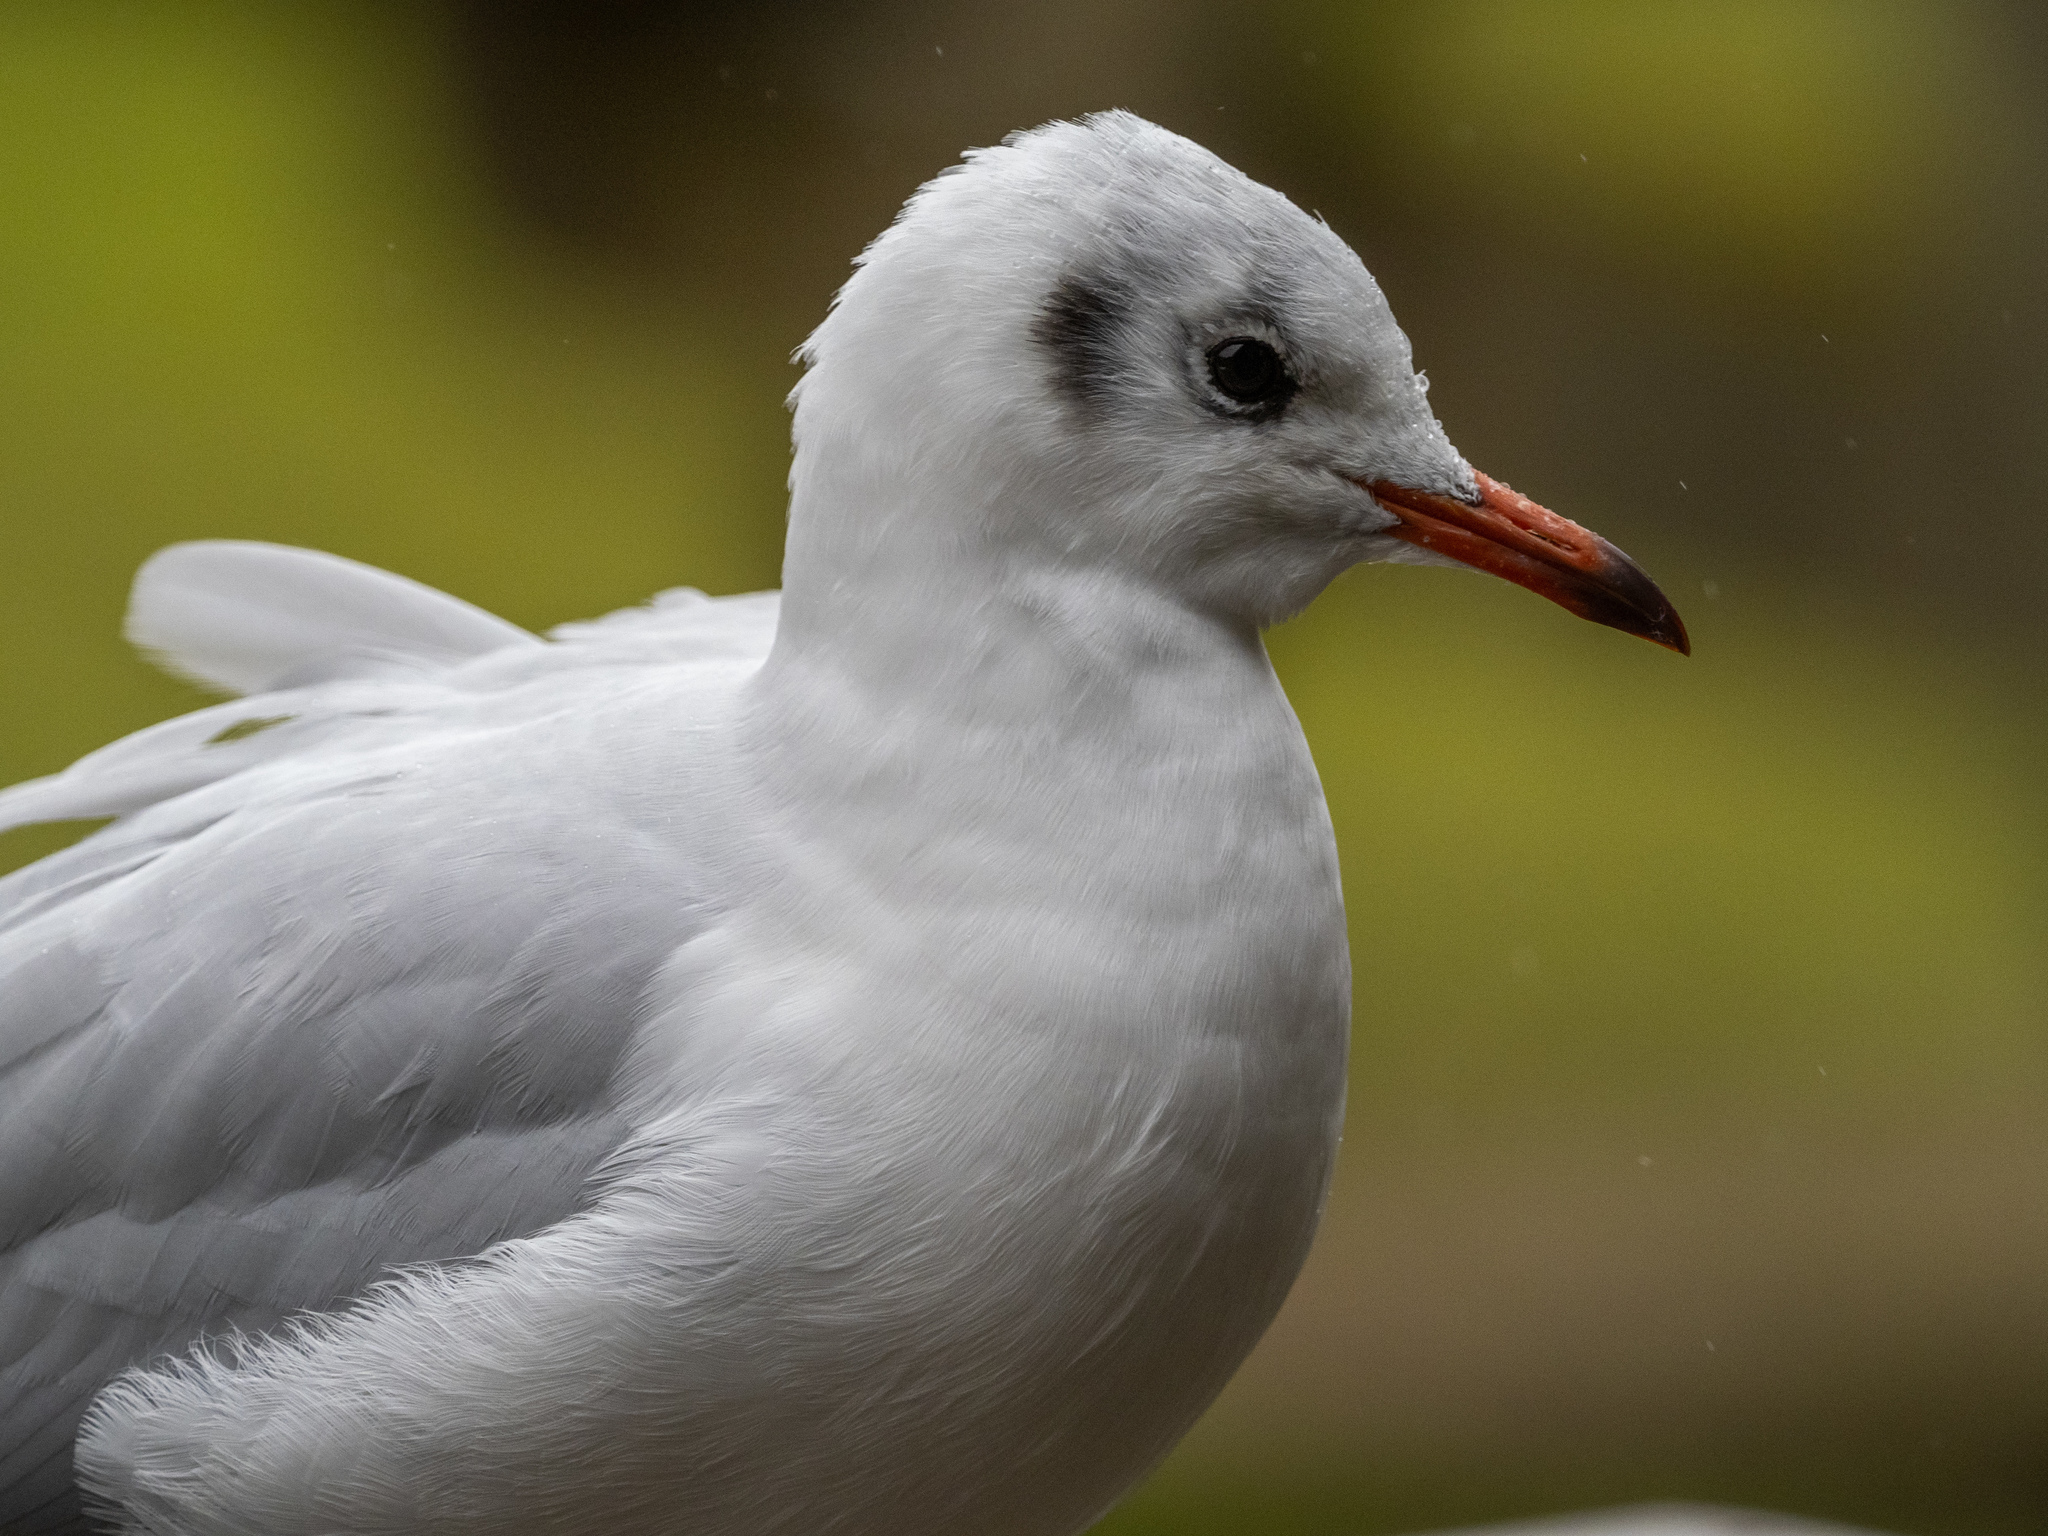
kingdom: Animalia
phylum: Chordata
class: Aves
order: Charadriiformes
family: Laridae
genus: Chroicocephalus
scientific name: Chroicocephalus ridibundus
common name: Black-headed gull
